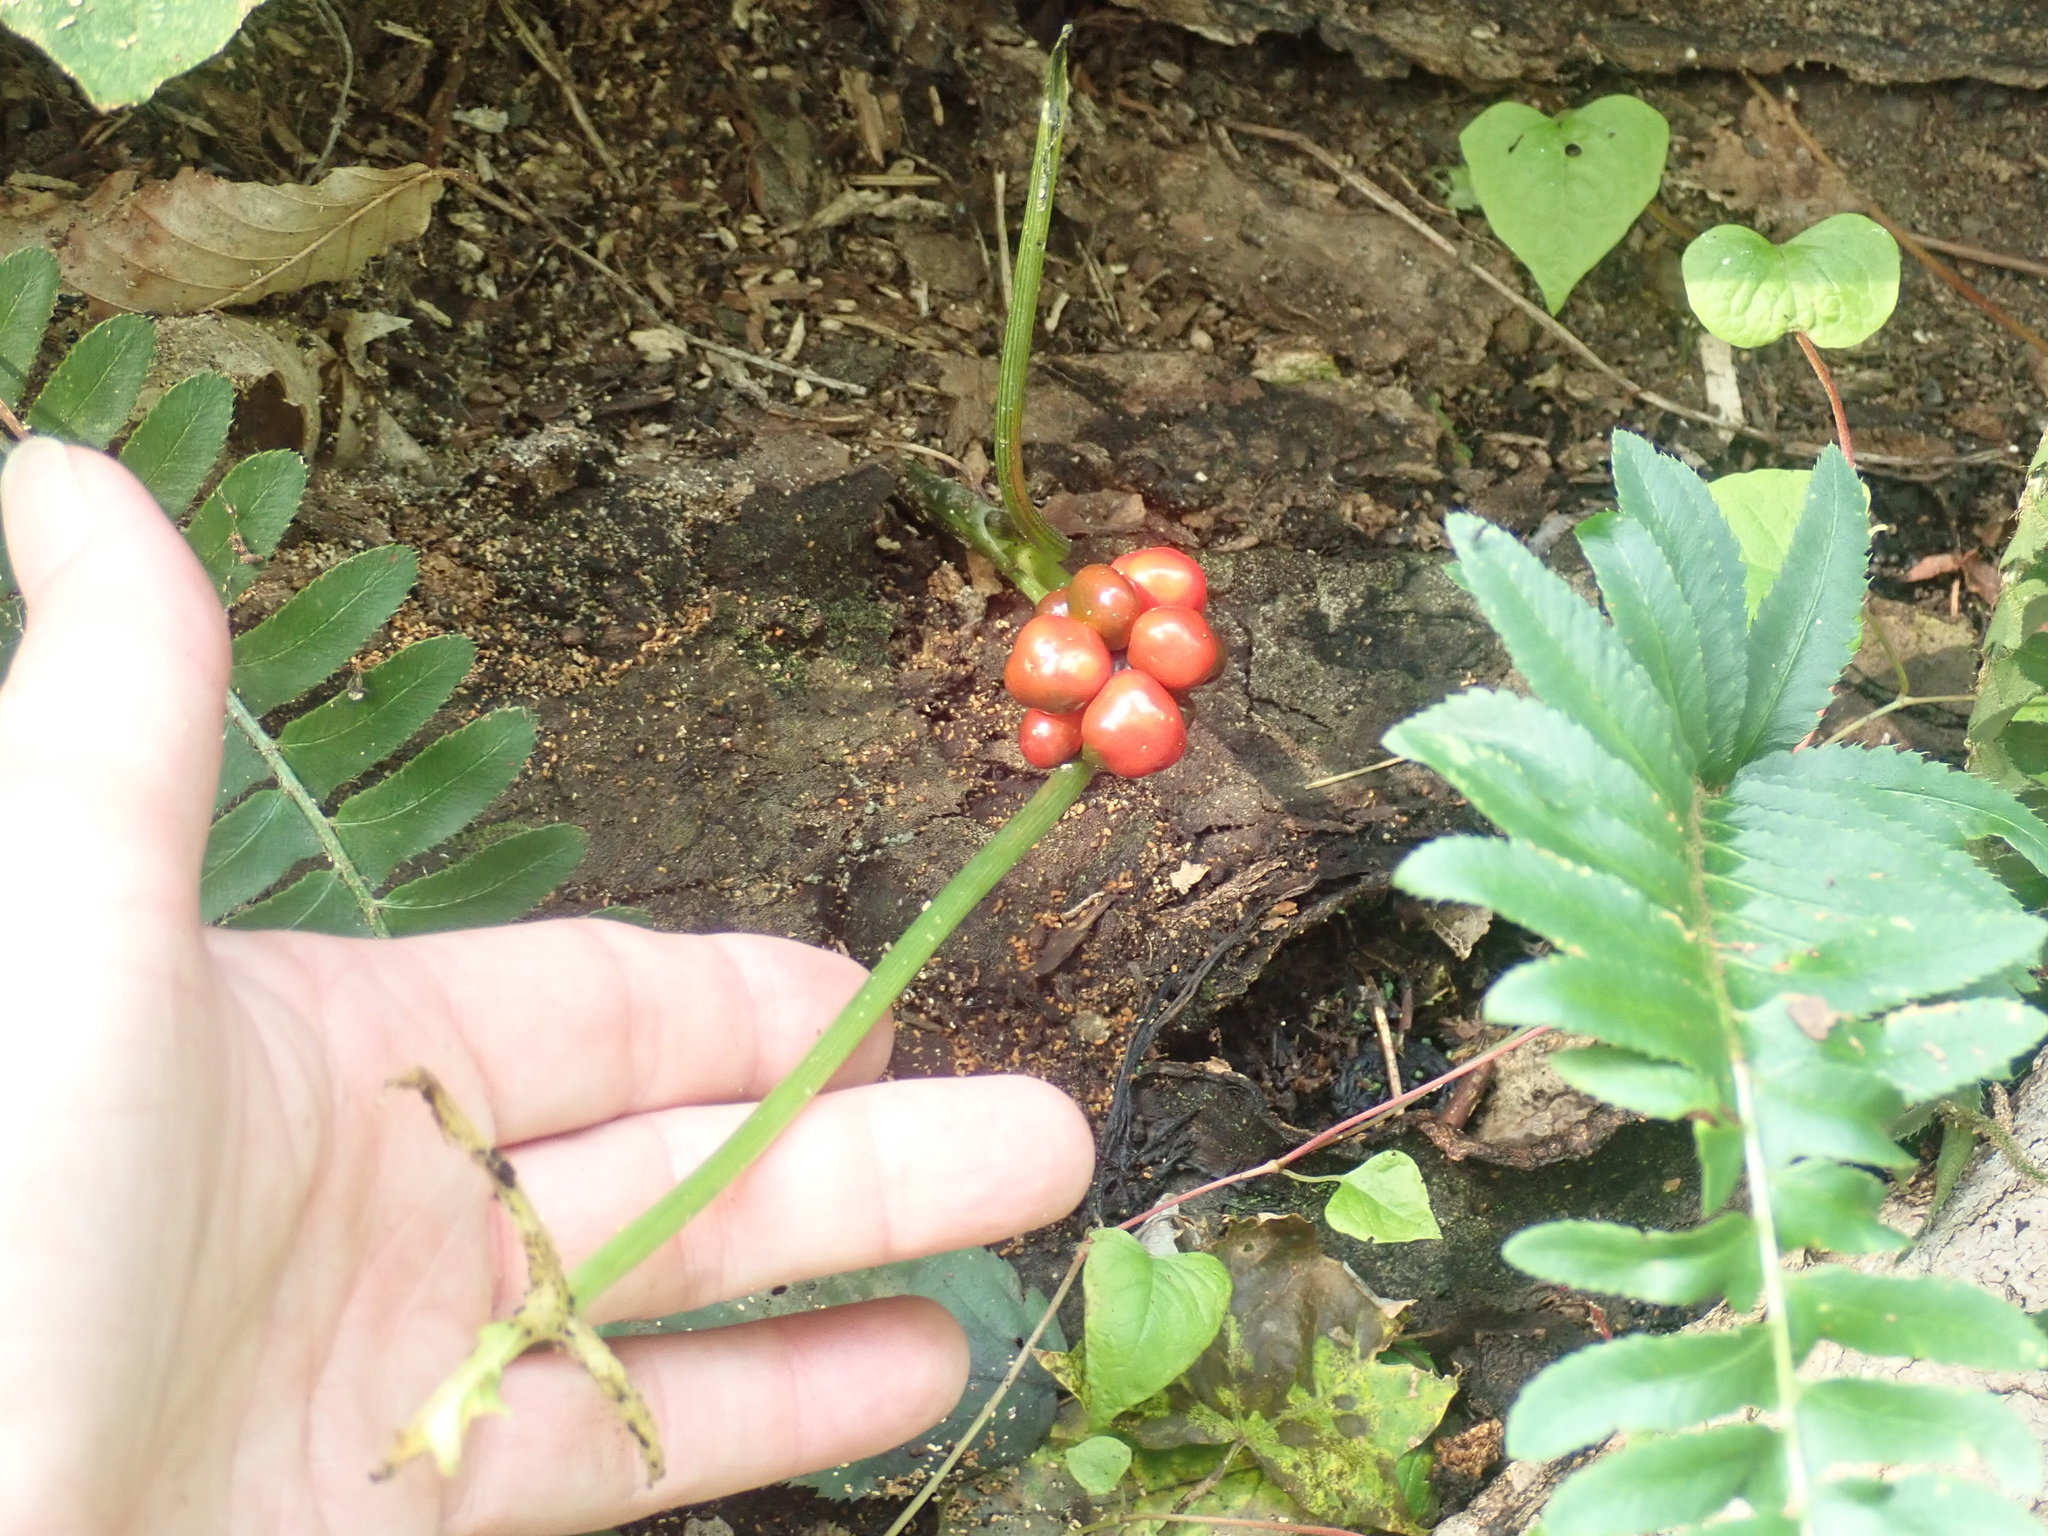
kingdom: Plantae
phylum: Tracheophyta
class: Liliopsida
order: Alismatales
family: Araceae
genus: Arisaema
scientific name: Arisaema triphyllum
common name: Jack-in-the-pulpit
